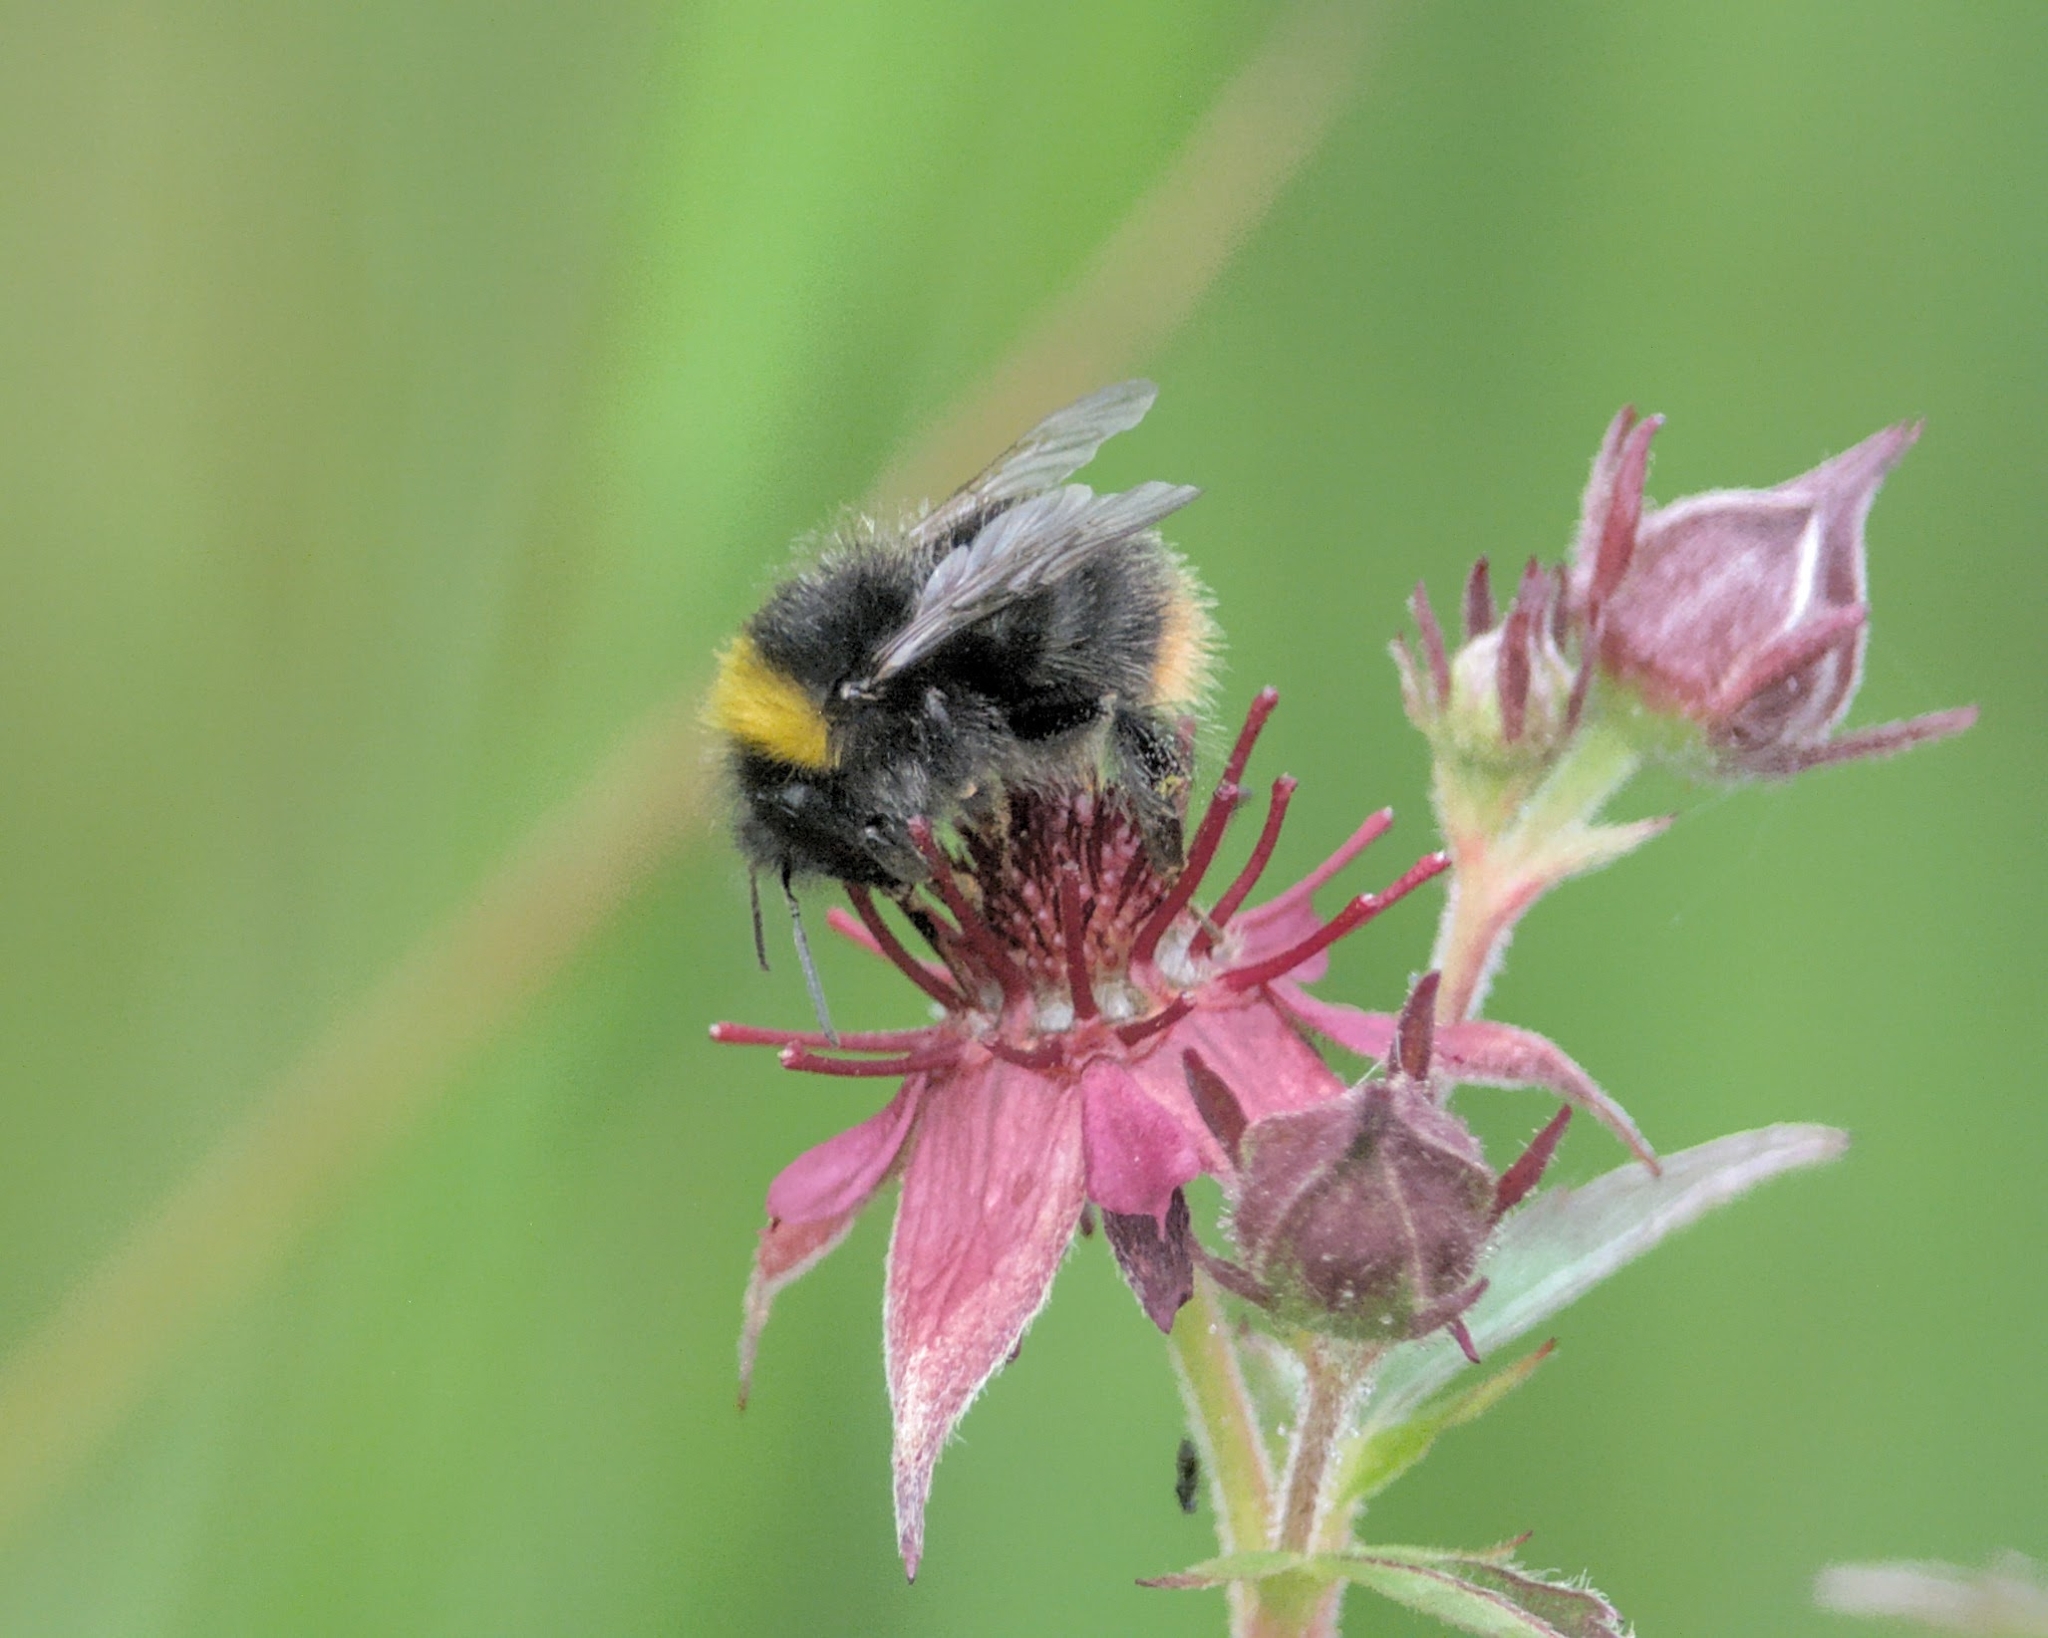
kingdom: Animalia
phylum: Arthropoda
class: Insecta
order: Hymenoptera
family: Apidae
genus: Bombus
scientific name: Bombus pratorum
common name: Early humble-bee
